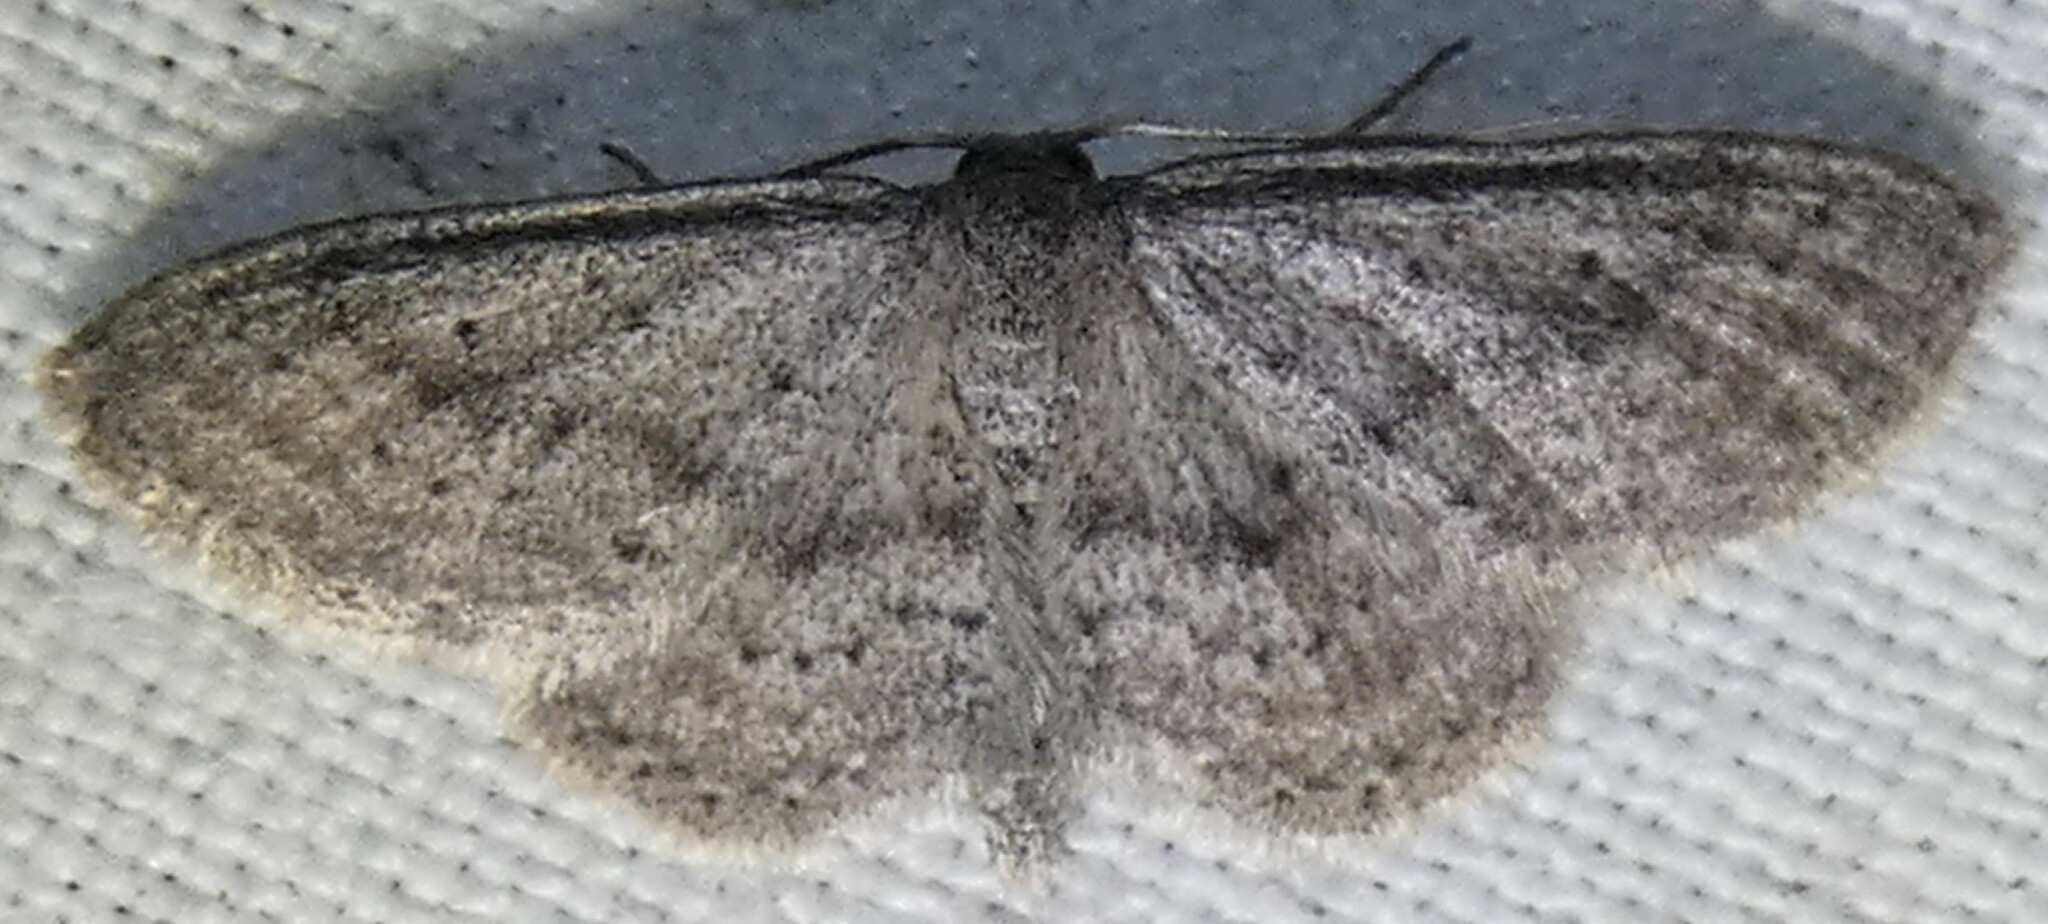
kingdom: Animalia
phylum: Arthropoda
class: Insecta
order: Lepidoptera
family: Geometridae
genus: Lobocleta
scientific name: Lobocleta ossularia
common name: Drab brown wave
